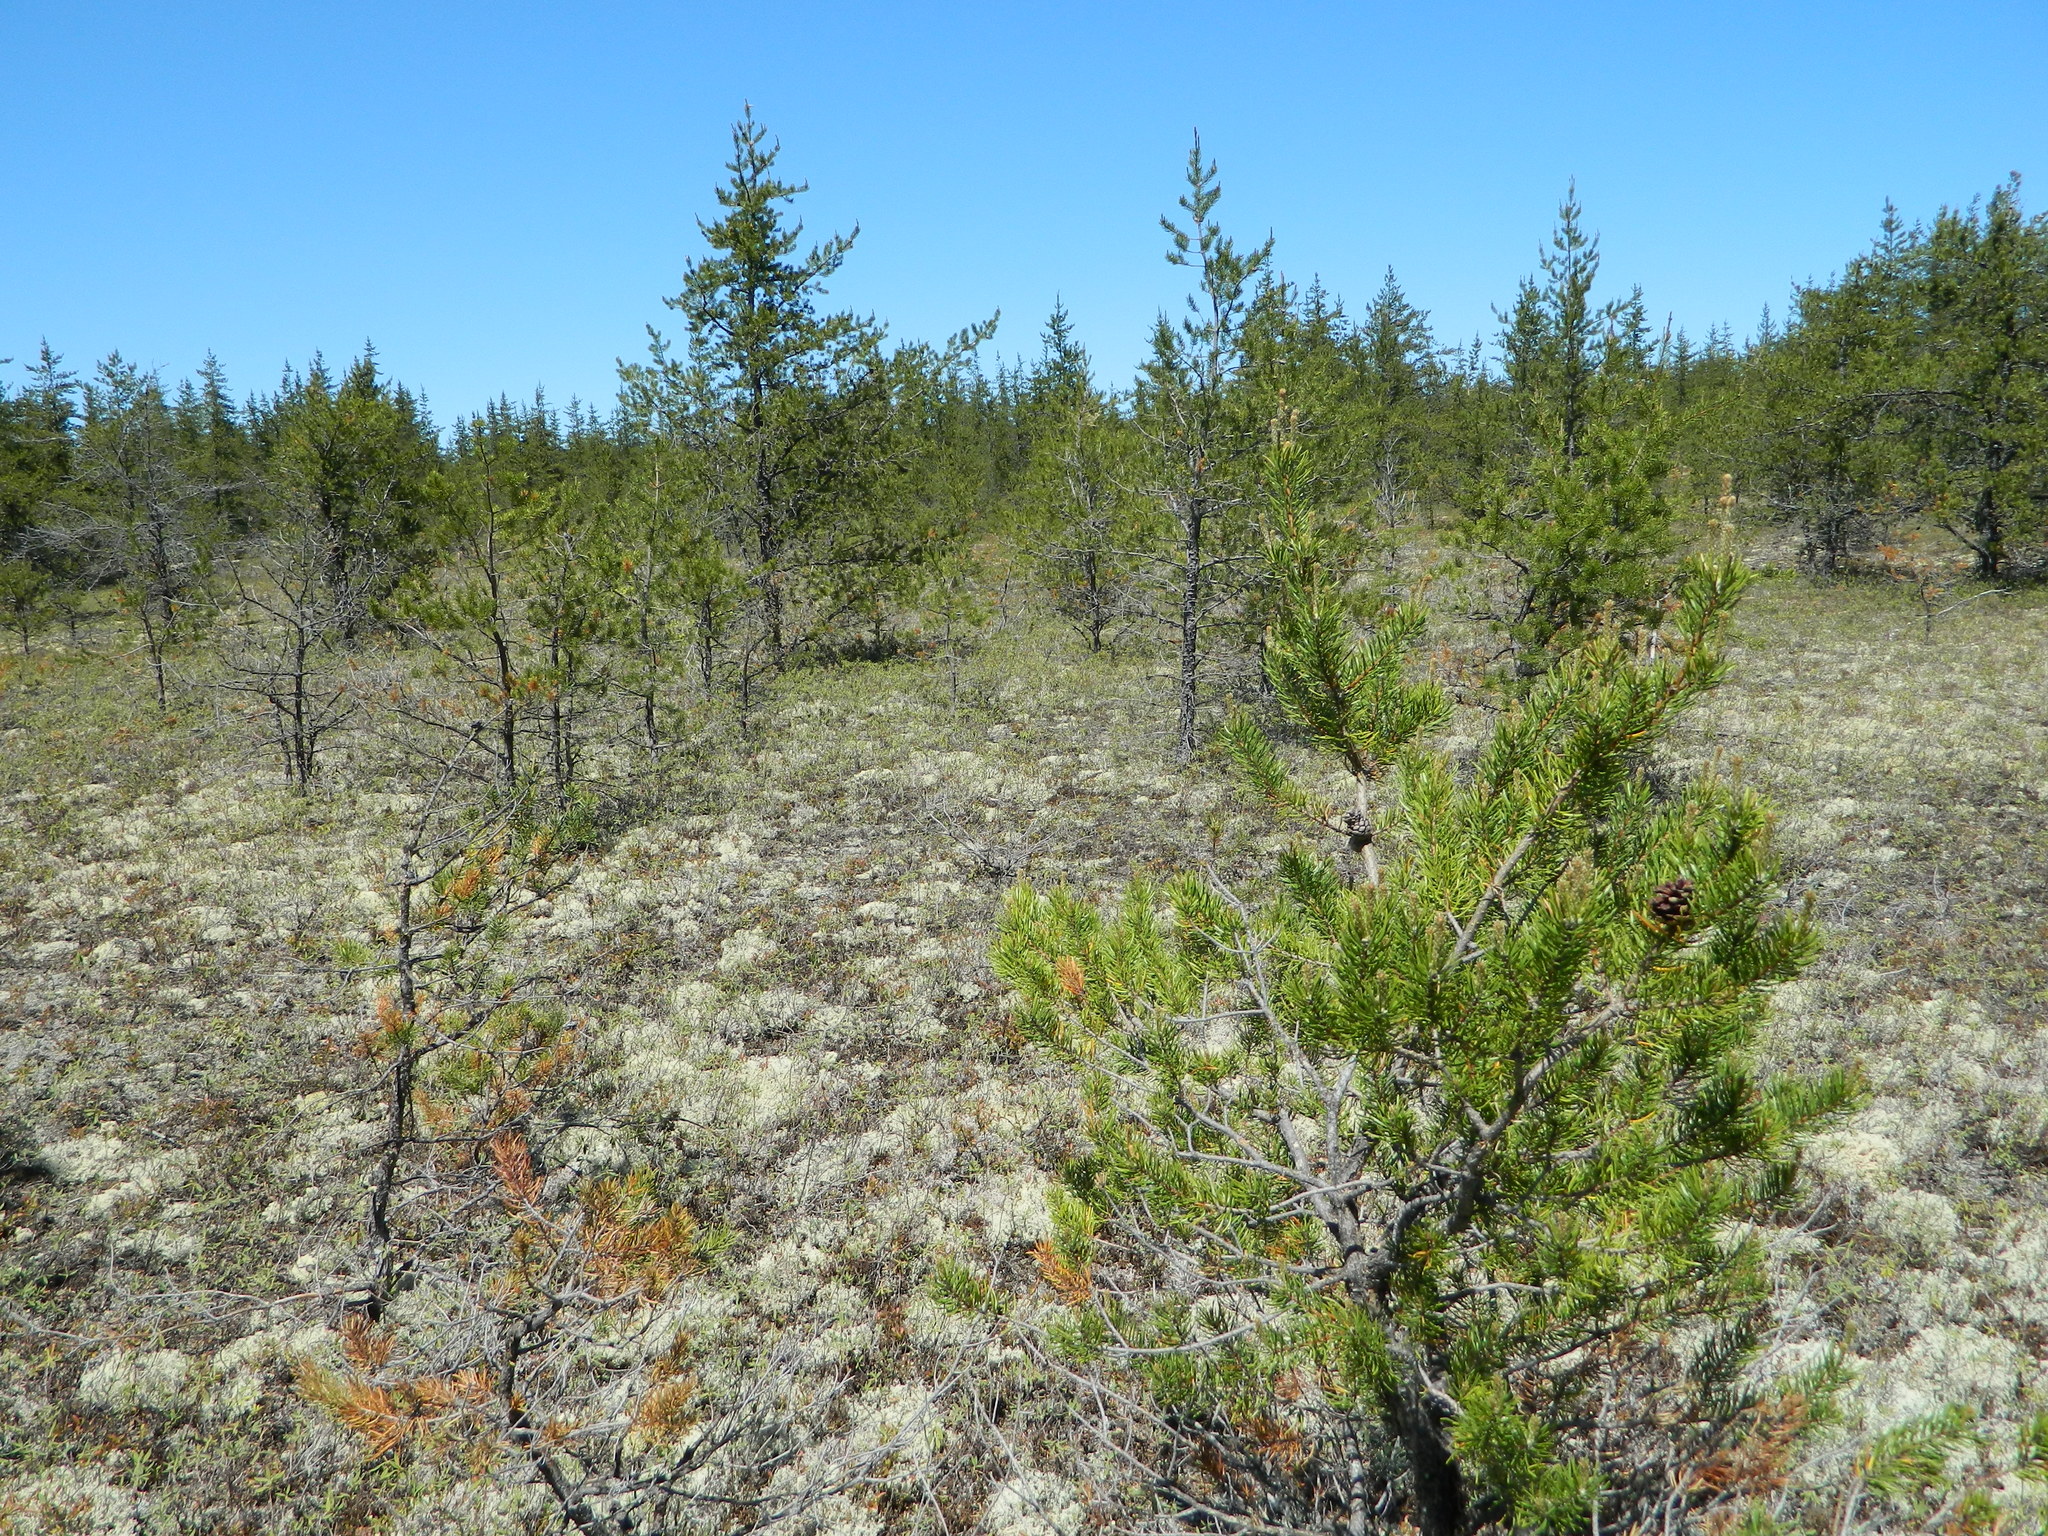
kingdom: Plantae
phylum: Tracheophyta
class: Pinopsida
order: Pinales
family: Pinaceae
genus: Pinus
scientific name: Pinus banksiana
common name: Jack pine
